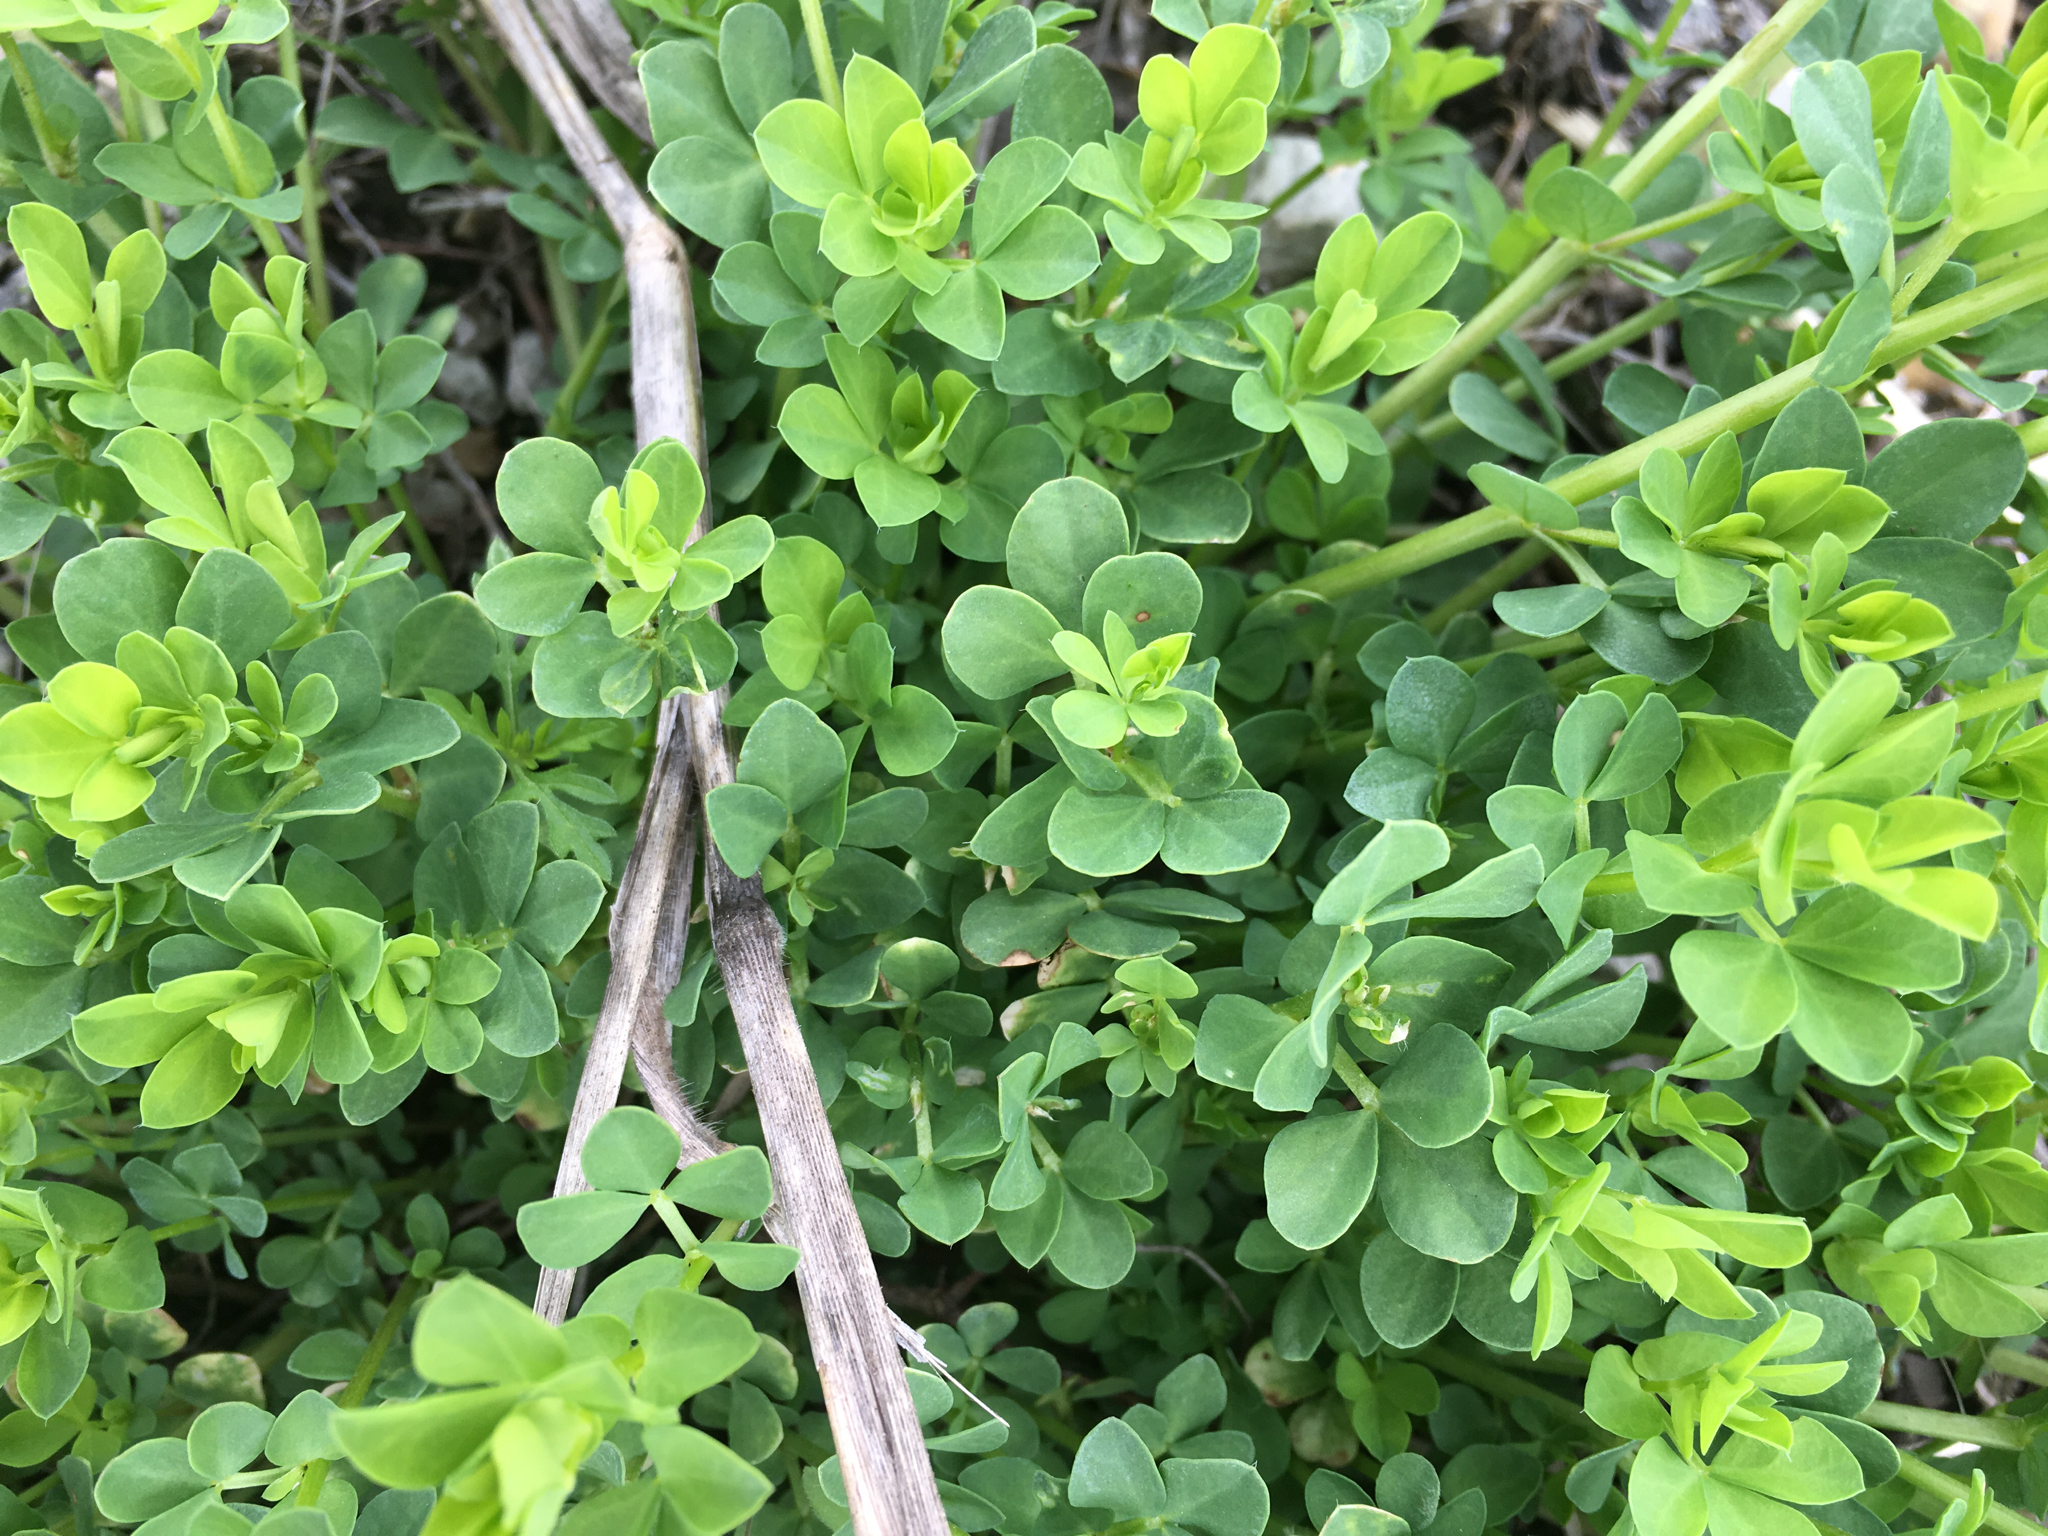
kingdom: Plantae
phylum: Tracheophyta
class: Magnoliopsida
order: Fabales
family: Fabaceae
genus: Lotus
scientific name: Lotus corniculatus
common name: Common bird's-foot-trefoil
